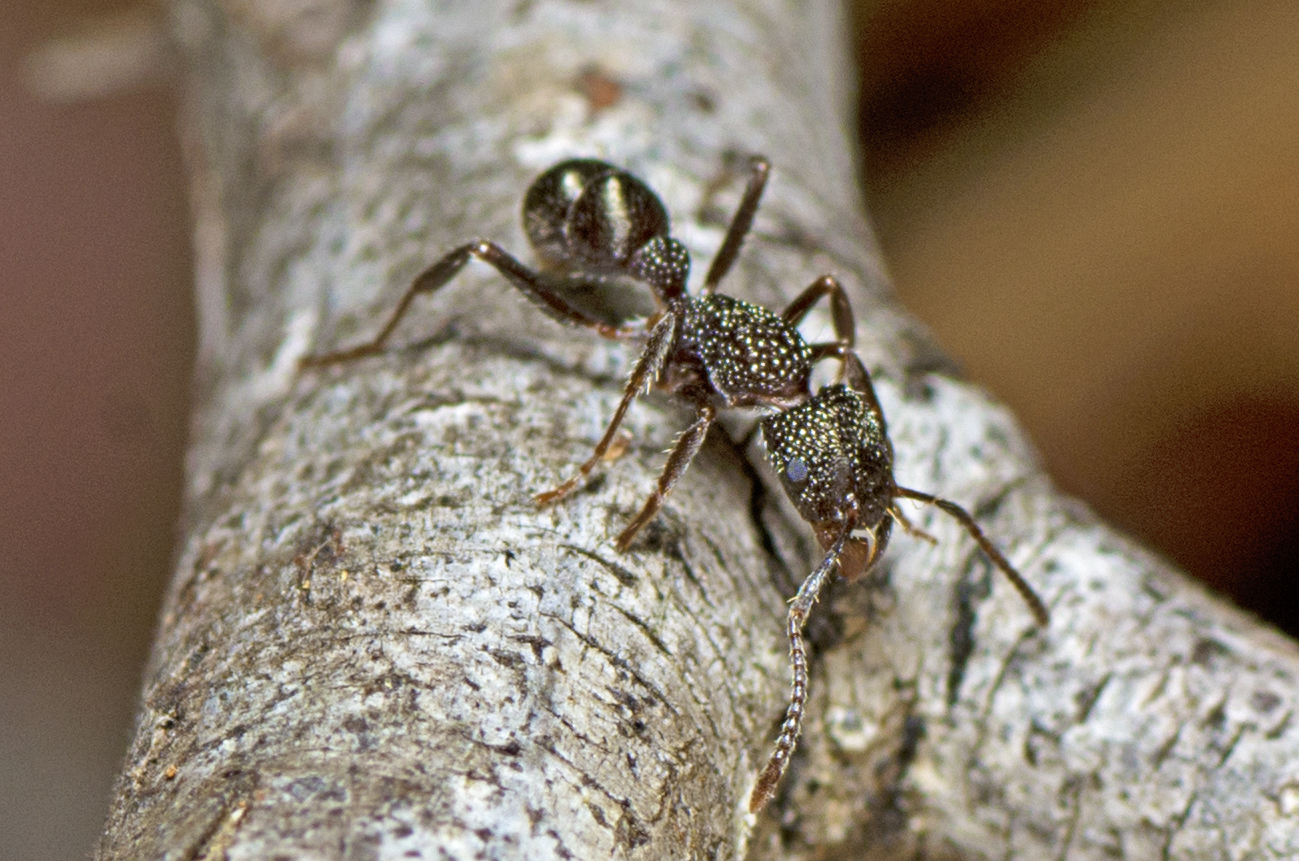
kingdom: Animalia
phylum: Arthropoda
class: Insecta
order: Hymenoptera
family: Formicidae
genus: Rhytidoponera
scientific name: Rhytidoponera anceps
